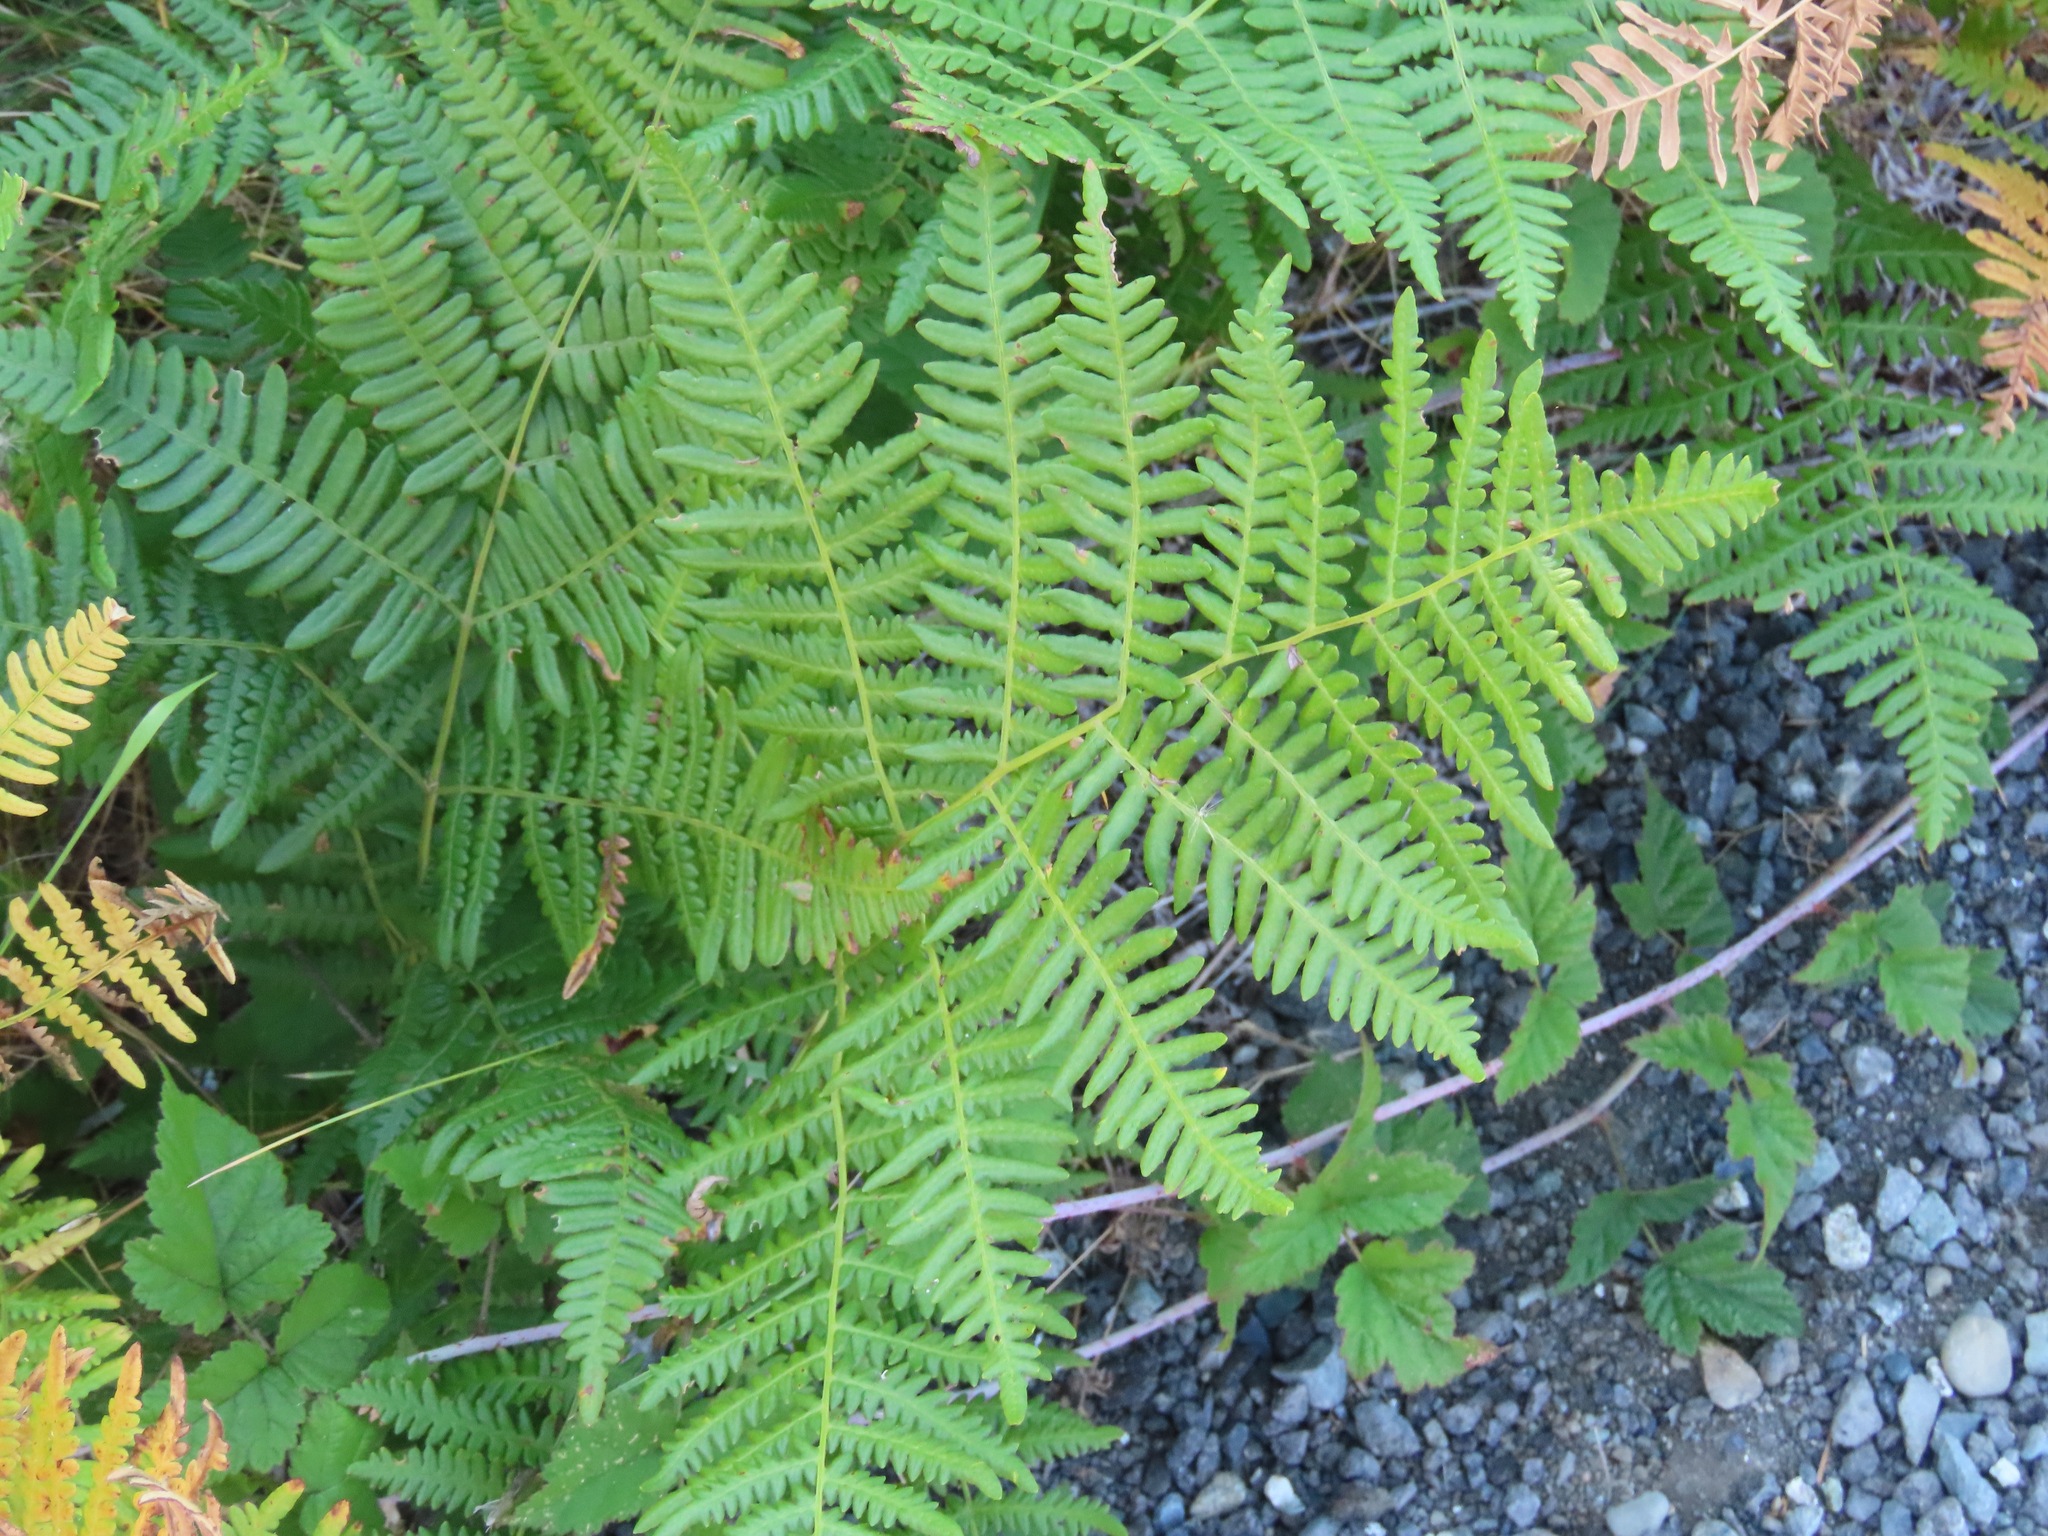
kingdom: Plantae
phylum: Tracheophyta
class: Polypodiopsida
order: Polypodiales
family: Dennstaedtiaceae
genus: Pteridium
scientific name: Pteridium aquilinum
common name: Bracken
